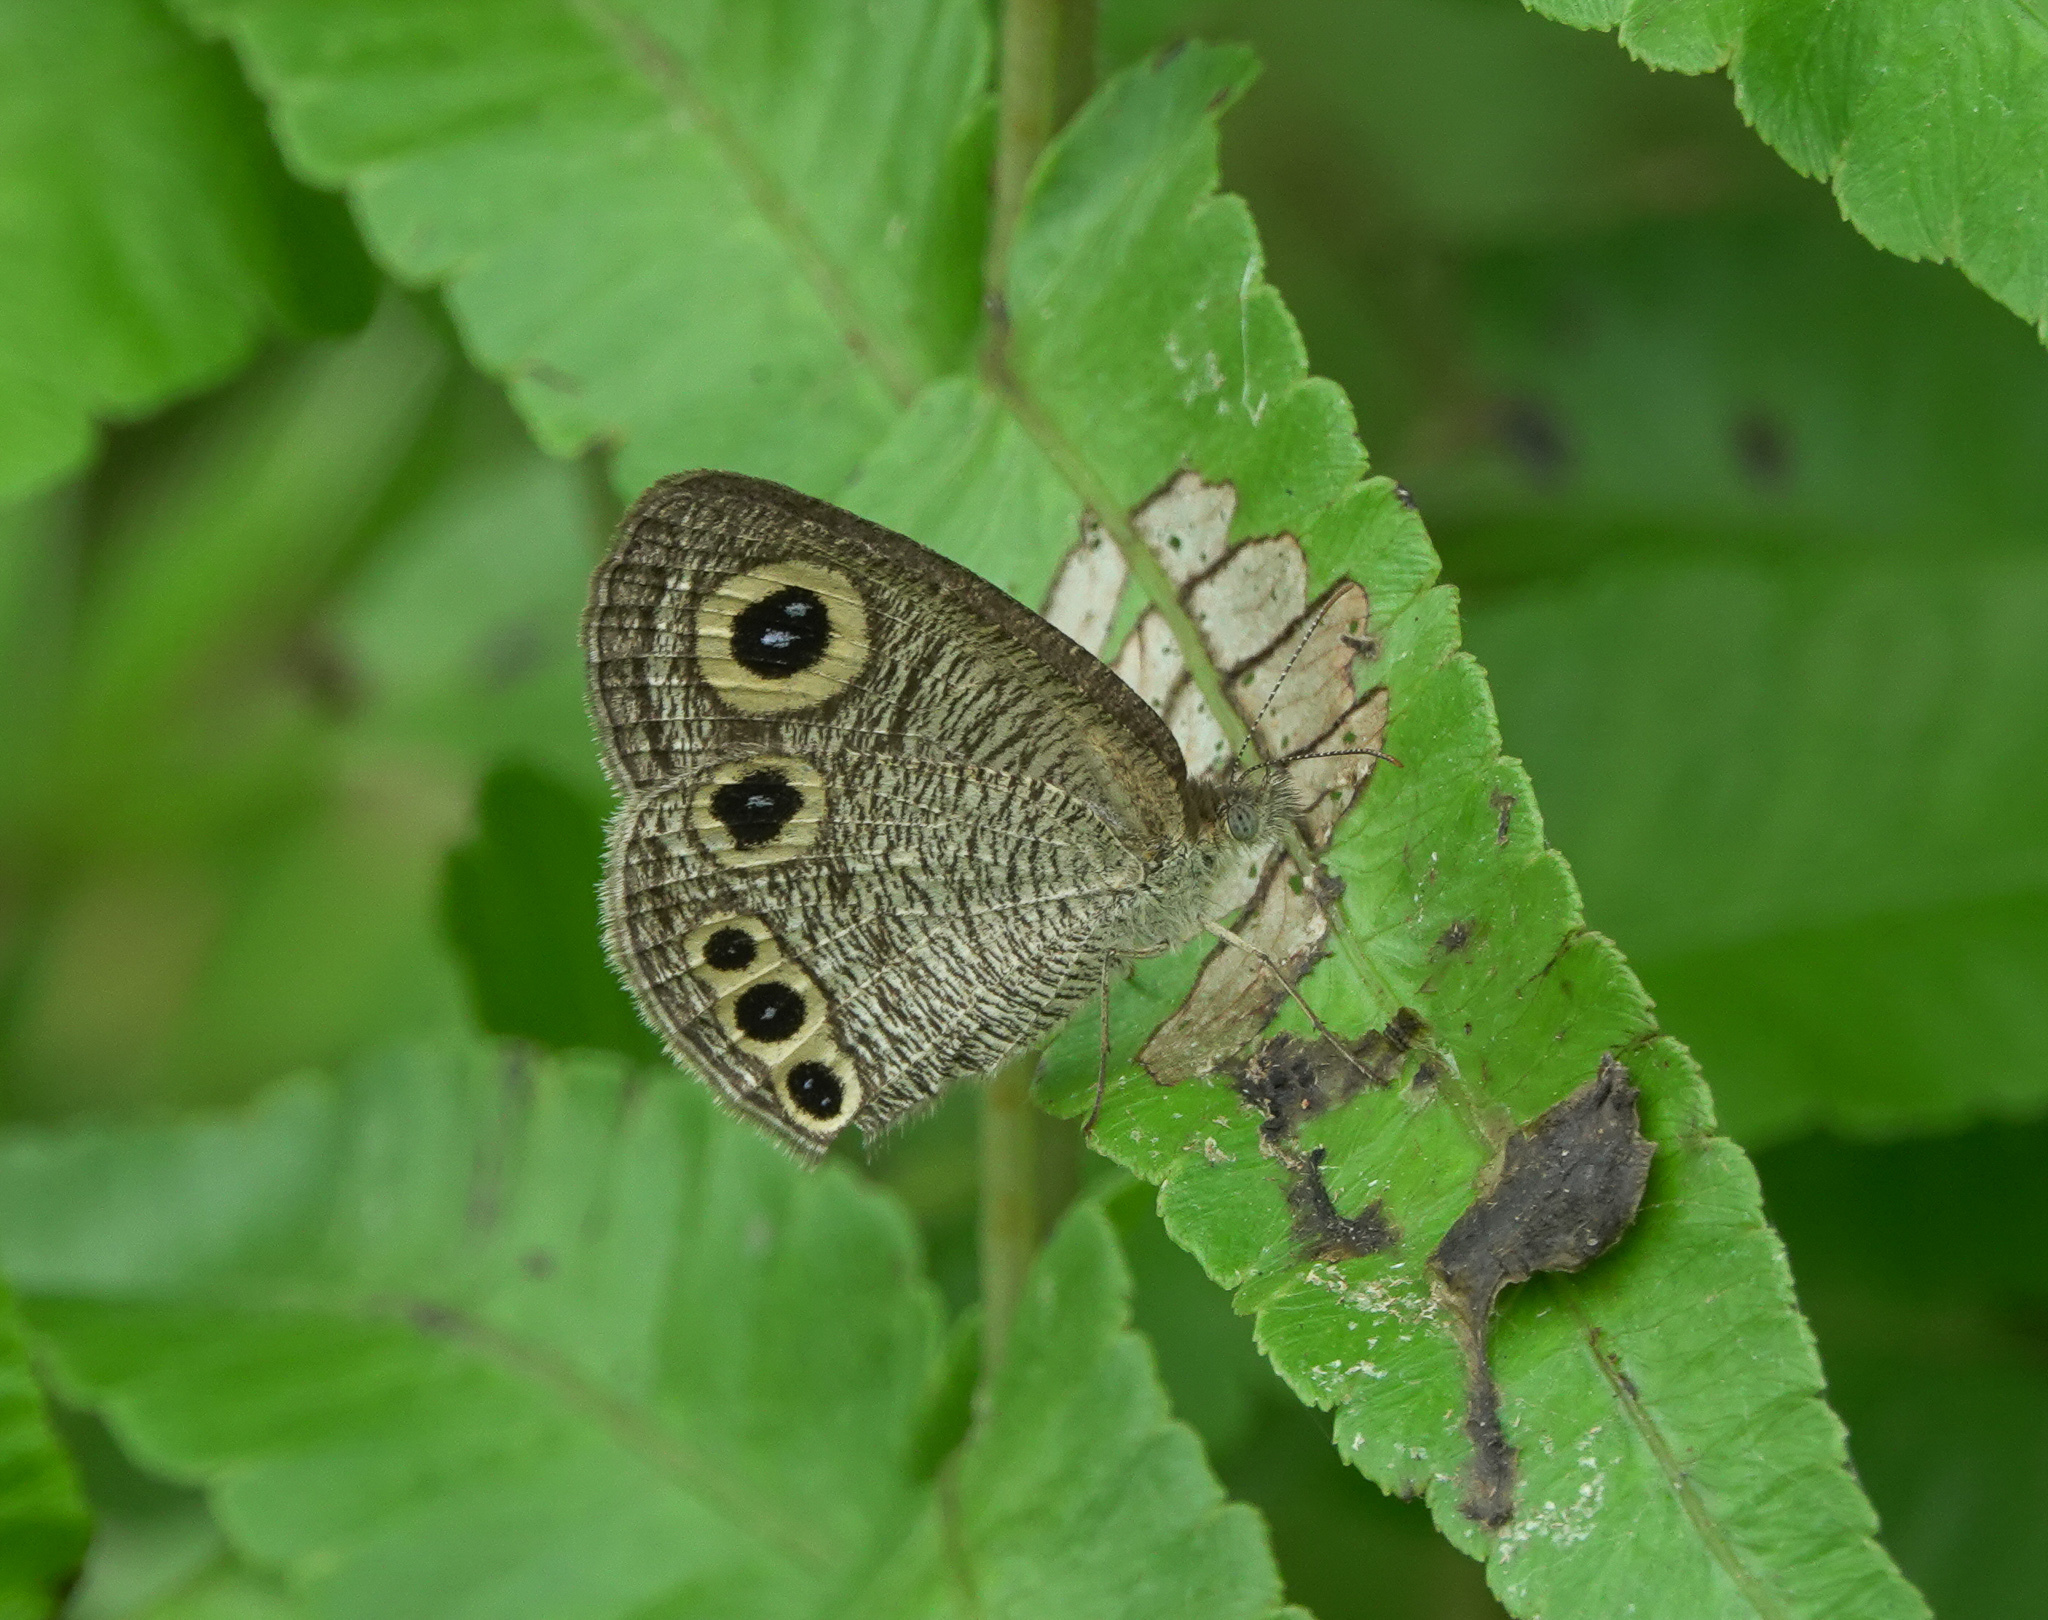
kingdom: Animalia
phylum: Arthropoda
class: Insecta
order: Lepidoptera
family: Nymphalidae
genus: Ypthima
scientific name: Ypthima huebneri
